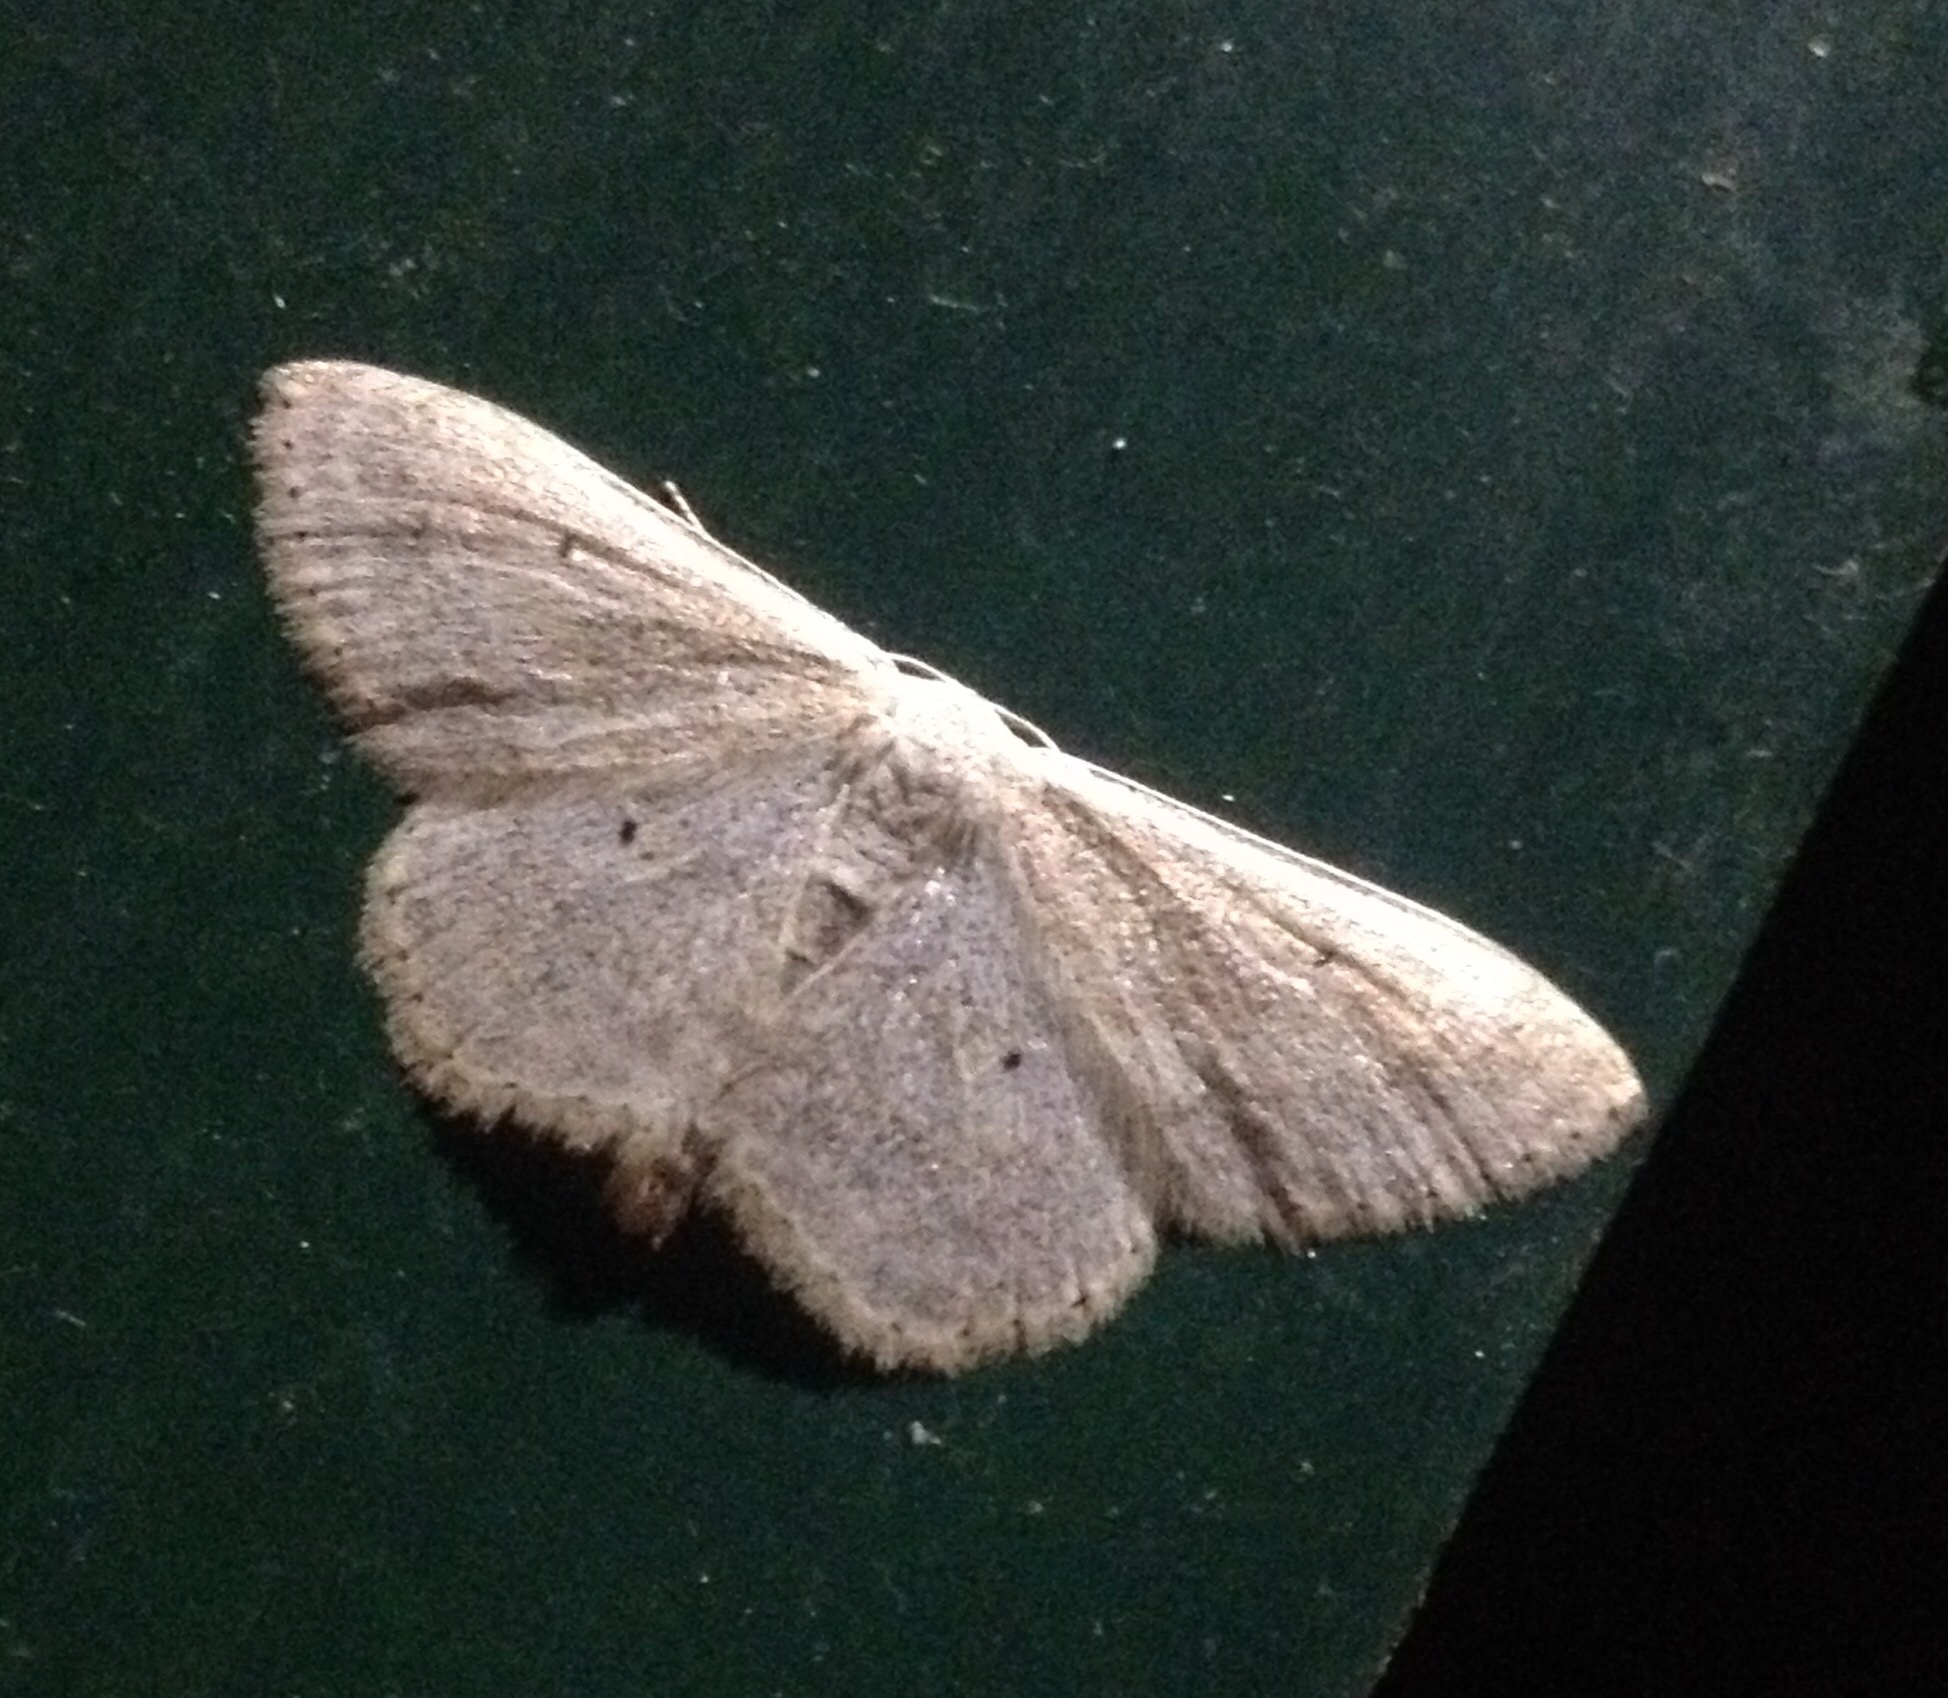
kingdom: Animalia
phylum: Arthropoda
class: Insecta
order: Lepidoptera
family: Geometridae
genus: Scopula
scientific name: Scopula incanata
